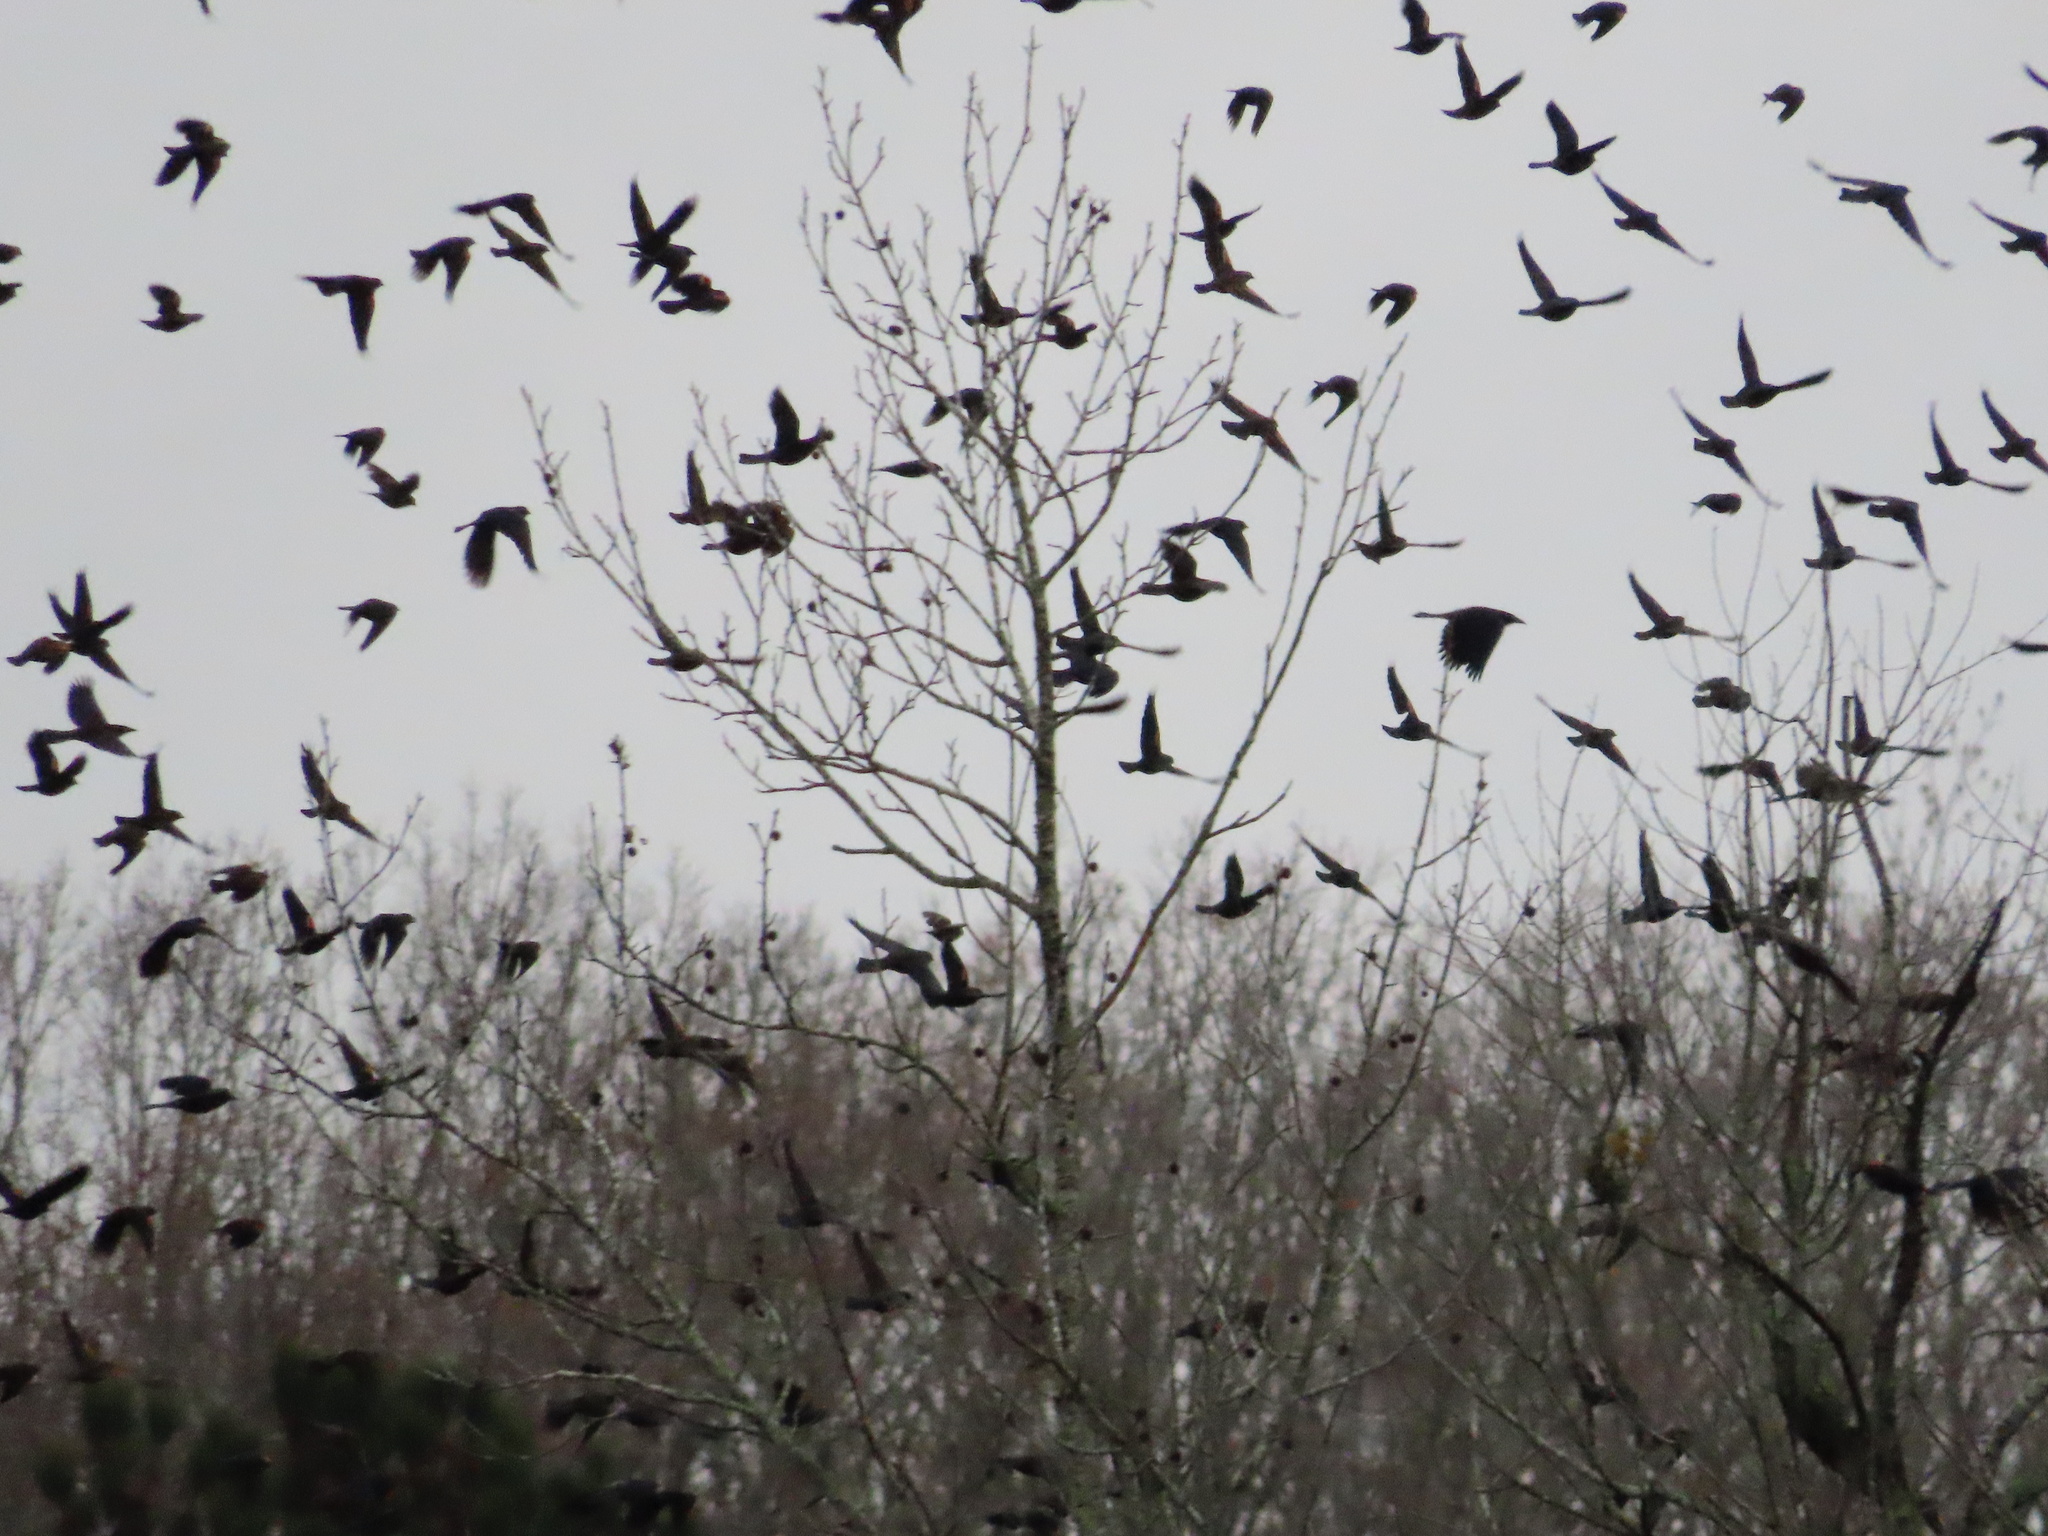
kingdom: Animalia
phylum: Chordata
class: Aves
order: Passeriformes
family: Icteridae
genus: Agelaius
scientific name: Agelaius phoeniceus
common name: Red-winged blackbird
